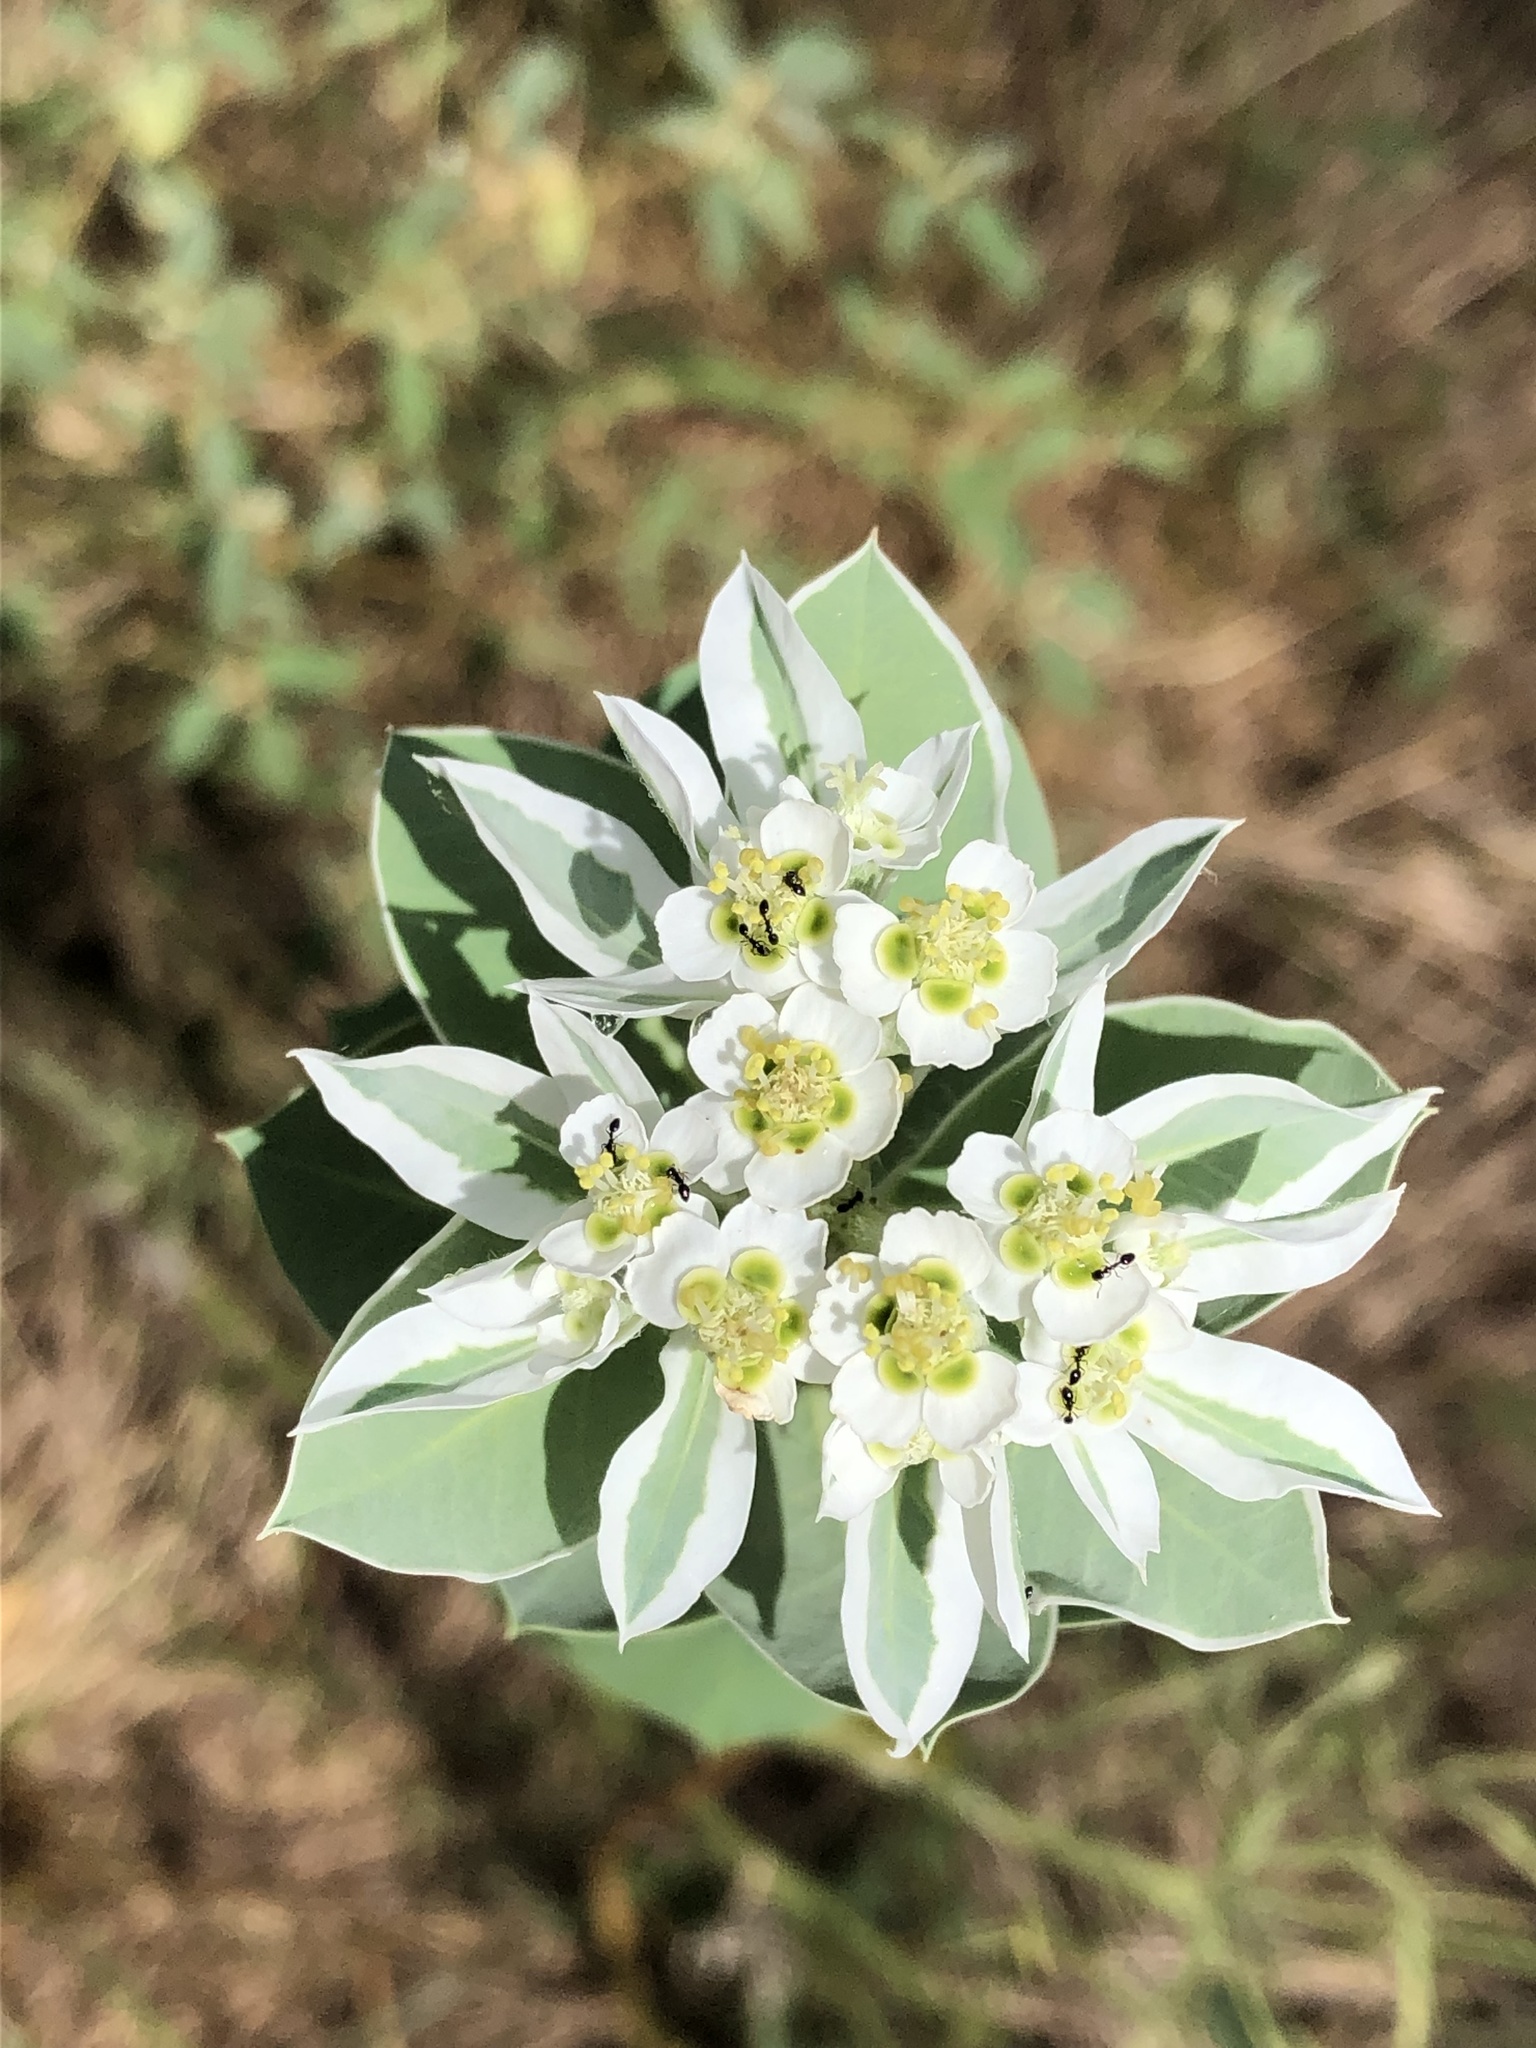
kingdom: Plantae
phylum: Tracheophyta
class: Magnoliopsida
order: Malpighiales
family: Euphorbiaceae
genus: Euphorbia
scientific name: Euphorbia marginata
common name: Ghostweed
